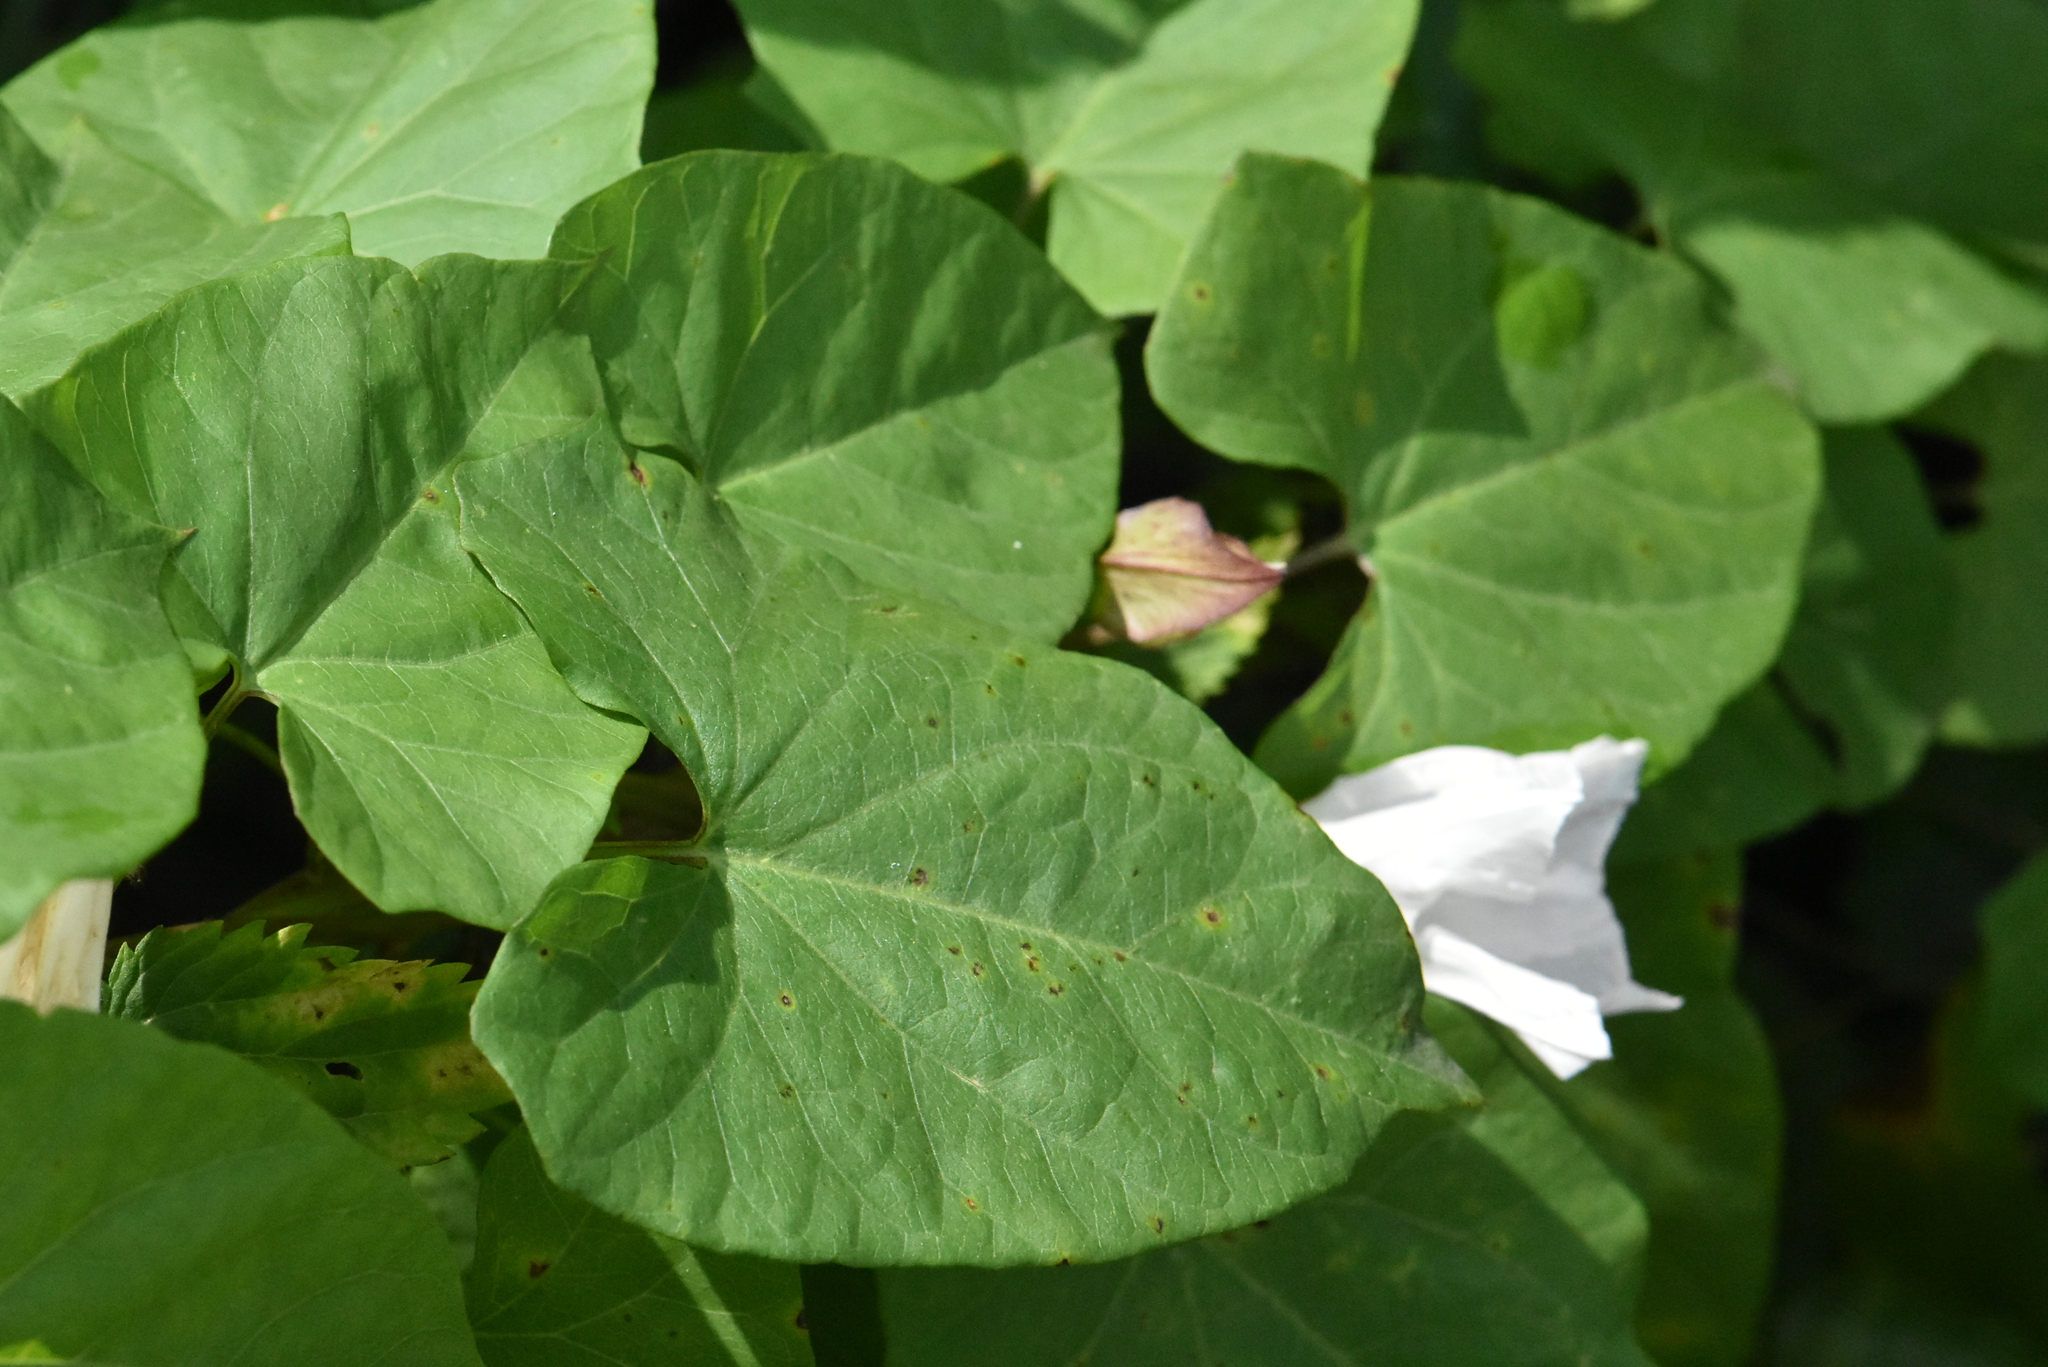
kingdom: Plantae
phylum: Tracheophyta
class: Magnoliopsida
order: Solanales
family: Convolvulaceae
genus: Calystegia
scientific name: Calystegia sepium
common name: Hedge bindweed
